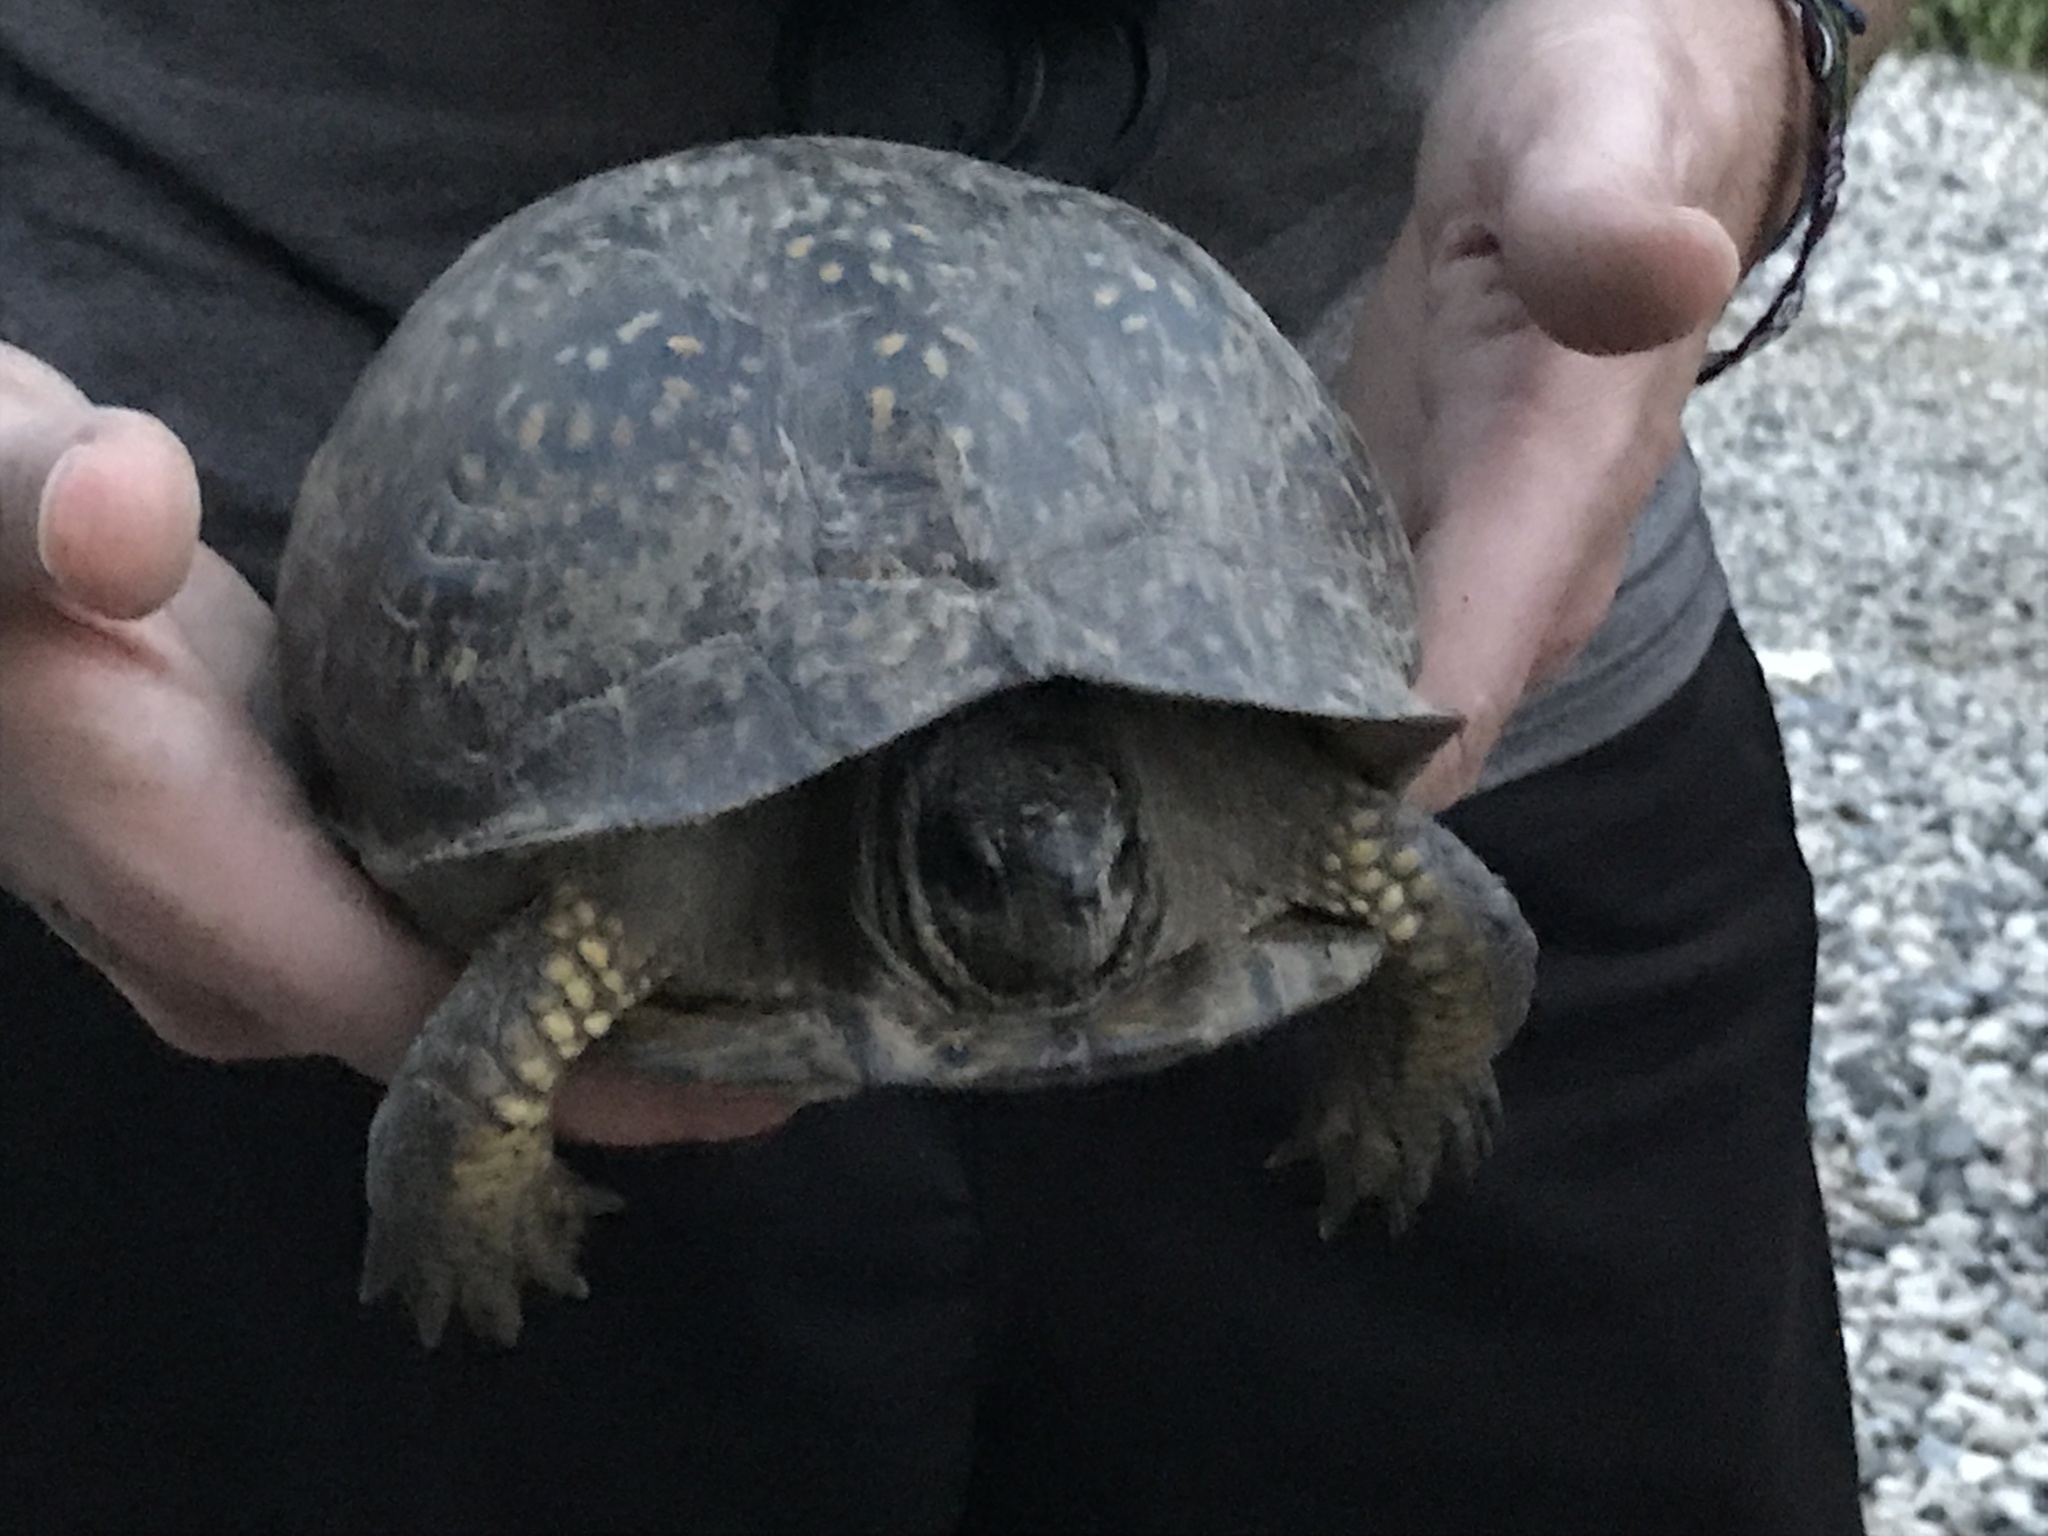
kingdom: Animalia
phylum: Chordata
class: Testudines
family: Emydidae
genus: Terrapene
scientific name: Terrapene carolina
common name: Common box turtle
